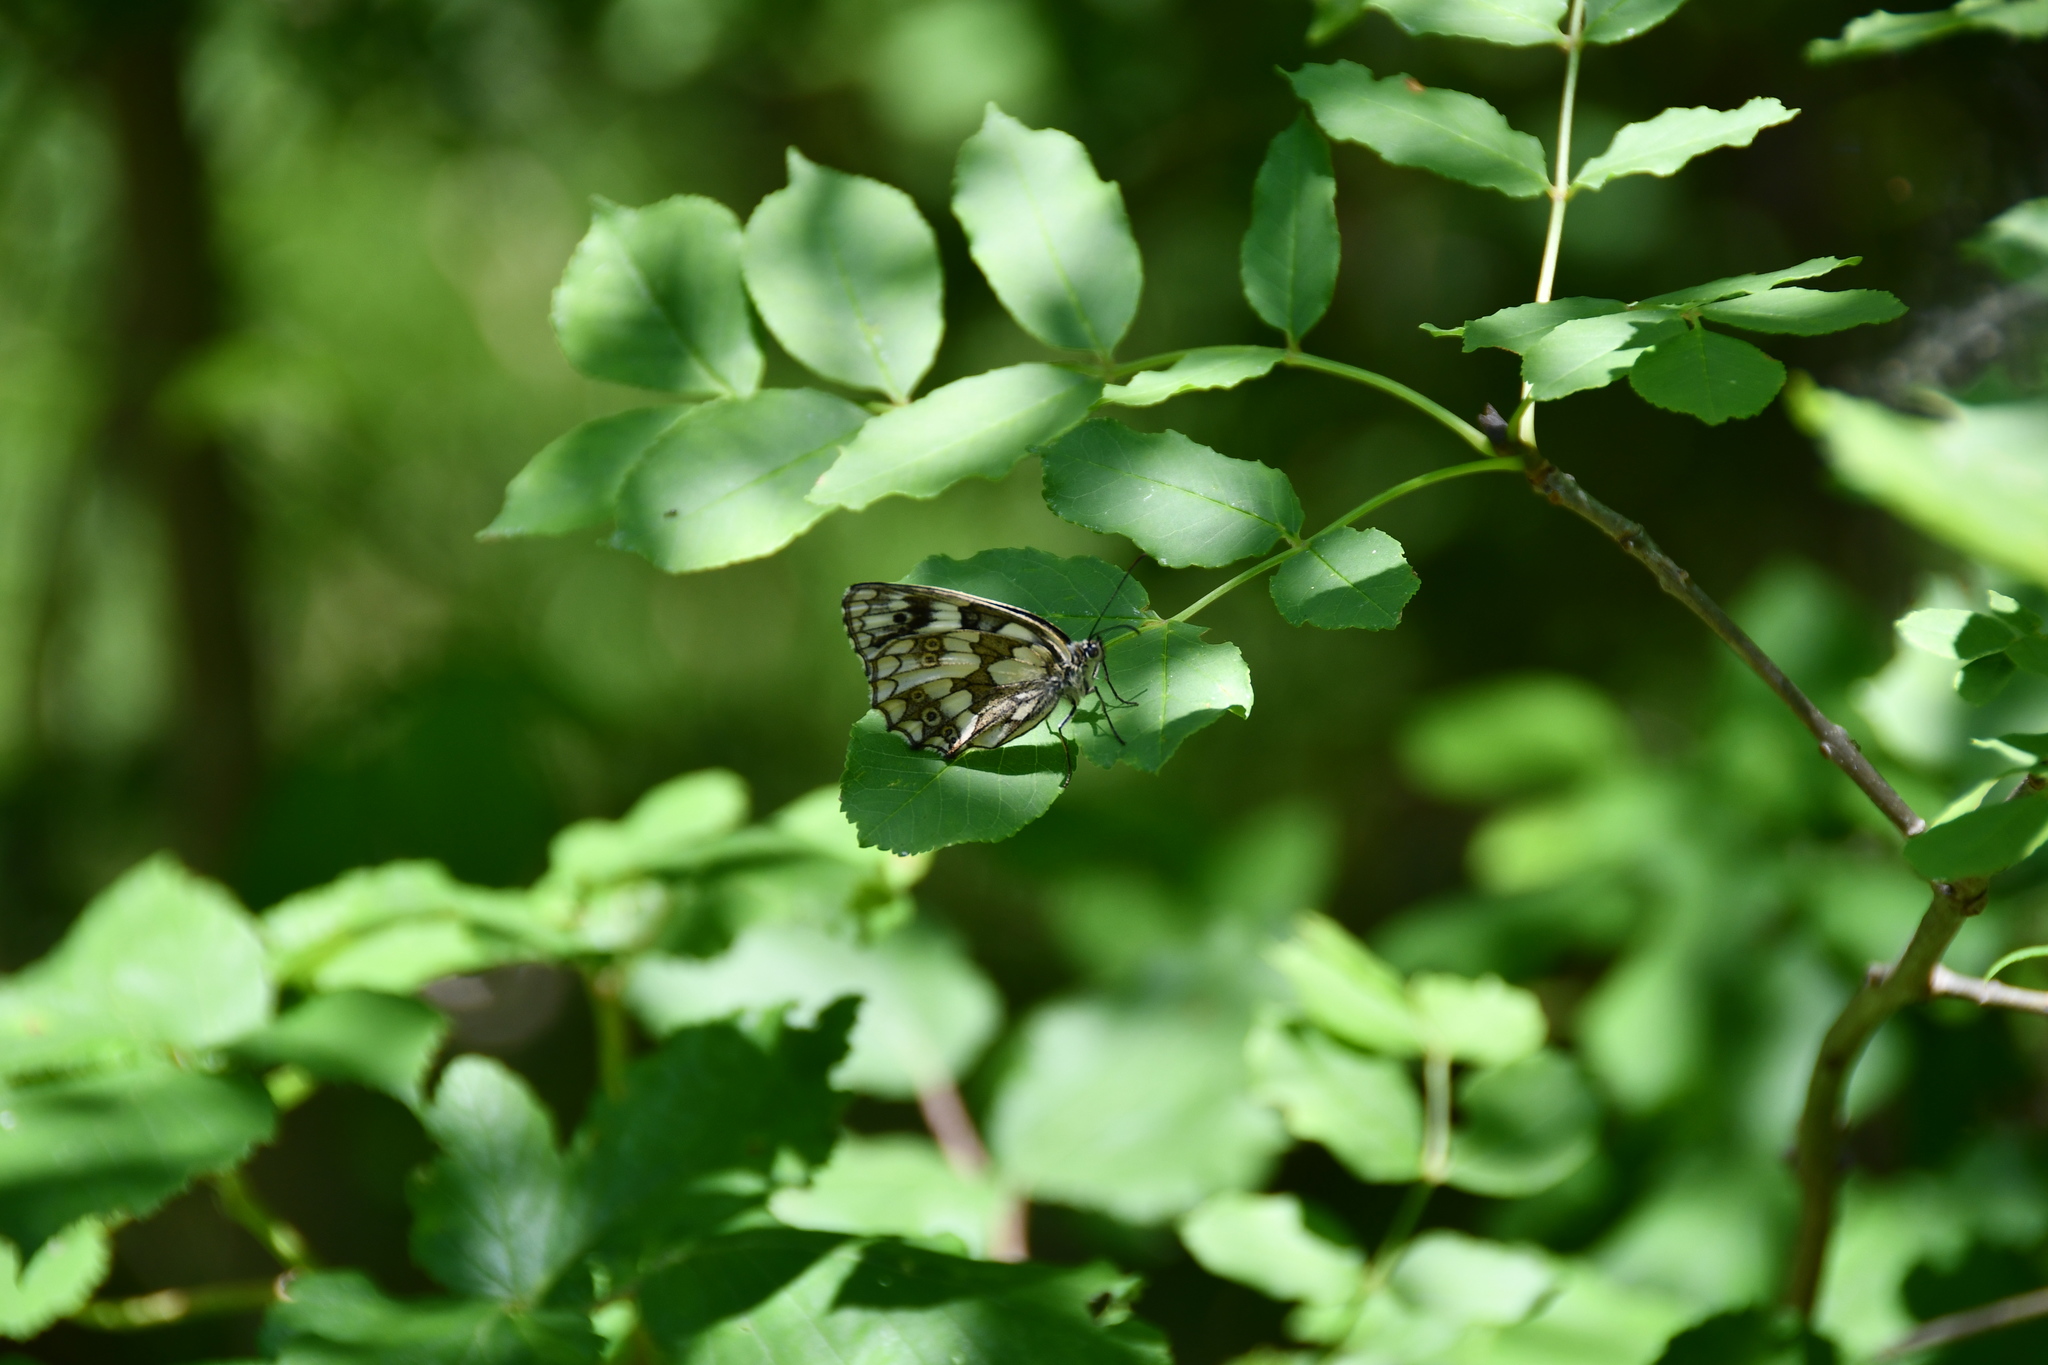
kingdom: Animalia
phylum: Arthropoda
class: Insecta
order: Lepidoptera
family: Nymphalidae
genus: Melanargia
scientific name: Melanargia galathea
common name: Marbled white
